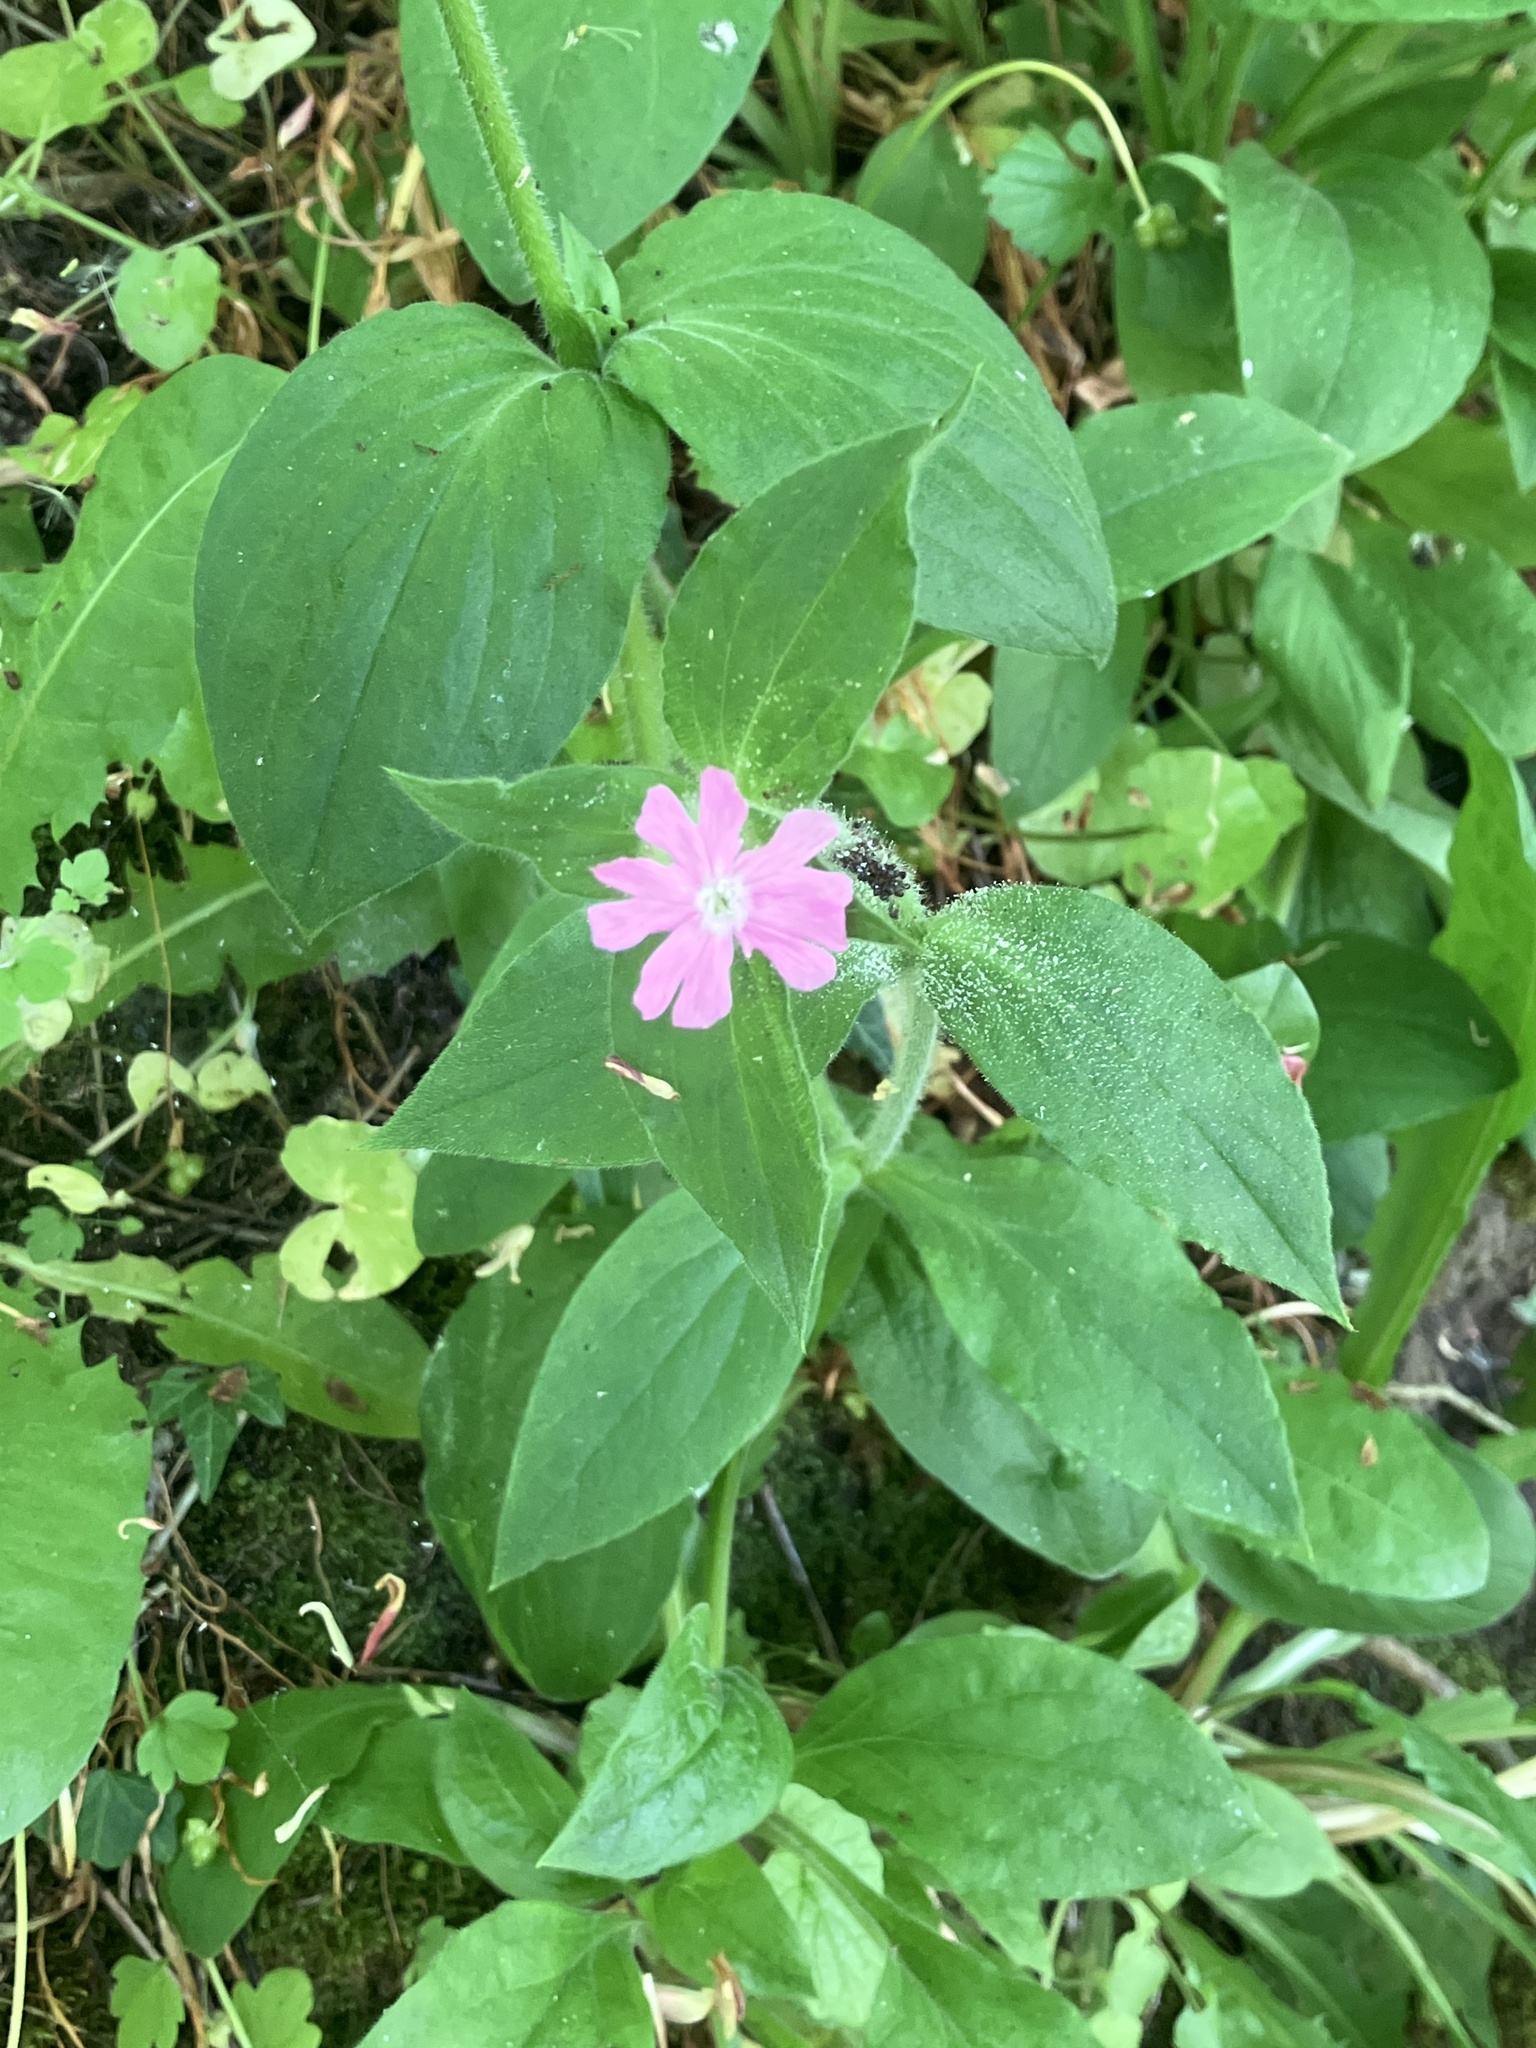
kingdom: Plantae
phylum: Tracheophyta
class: Magnoliopsida
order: Caryophyllales
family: Caryophyllaceae
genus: Silene
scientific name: Silene dioica
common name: Red campion
